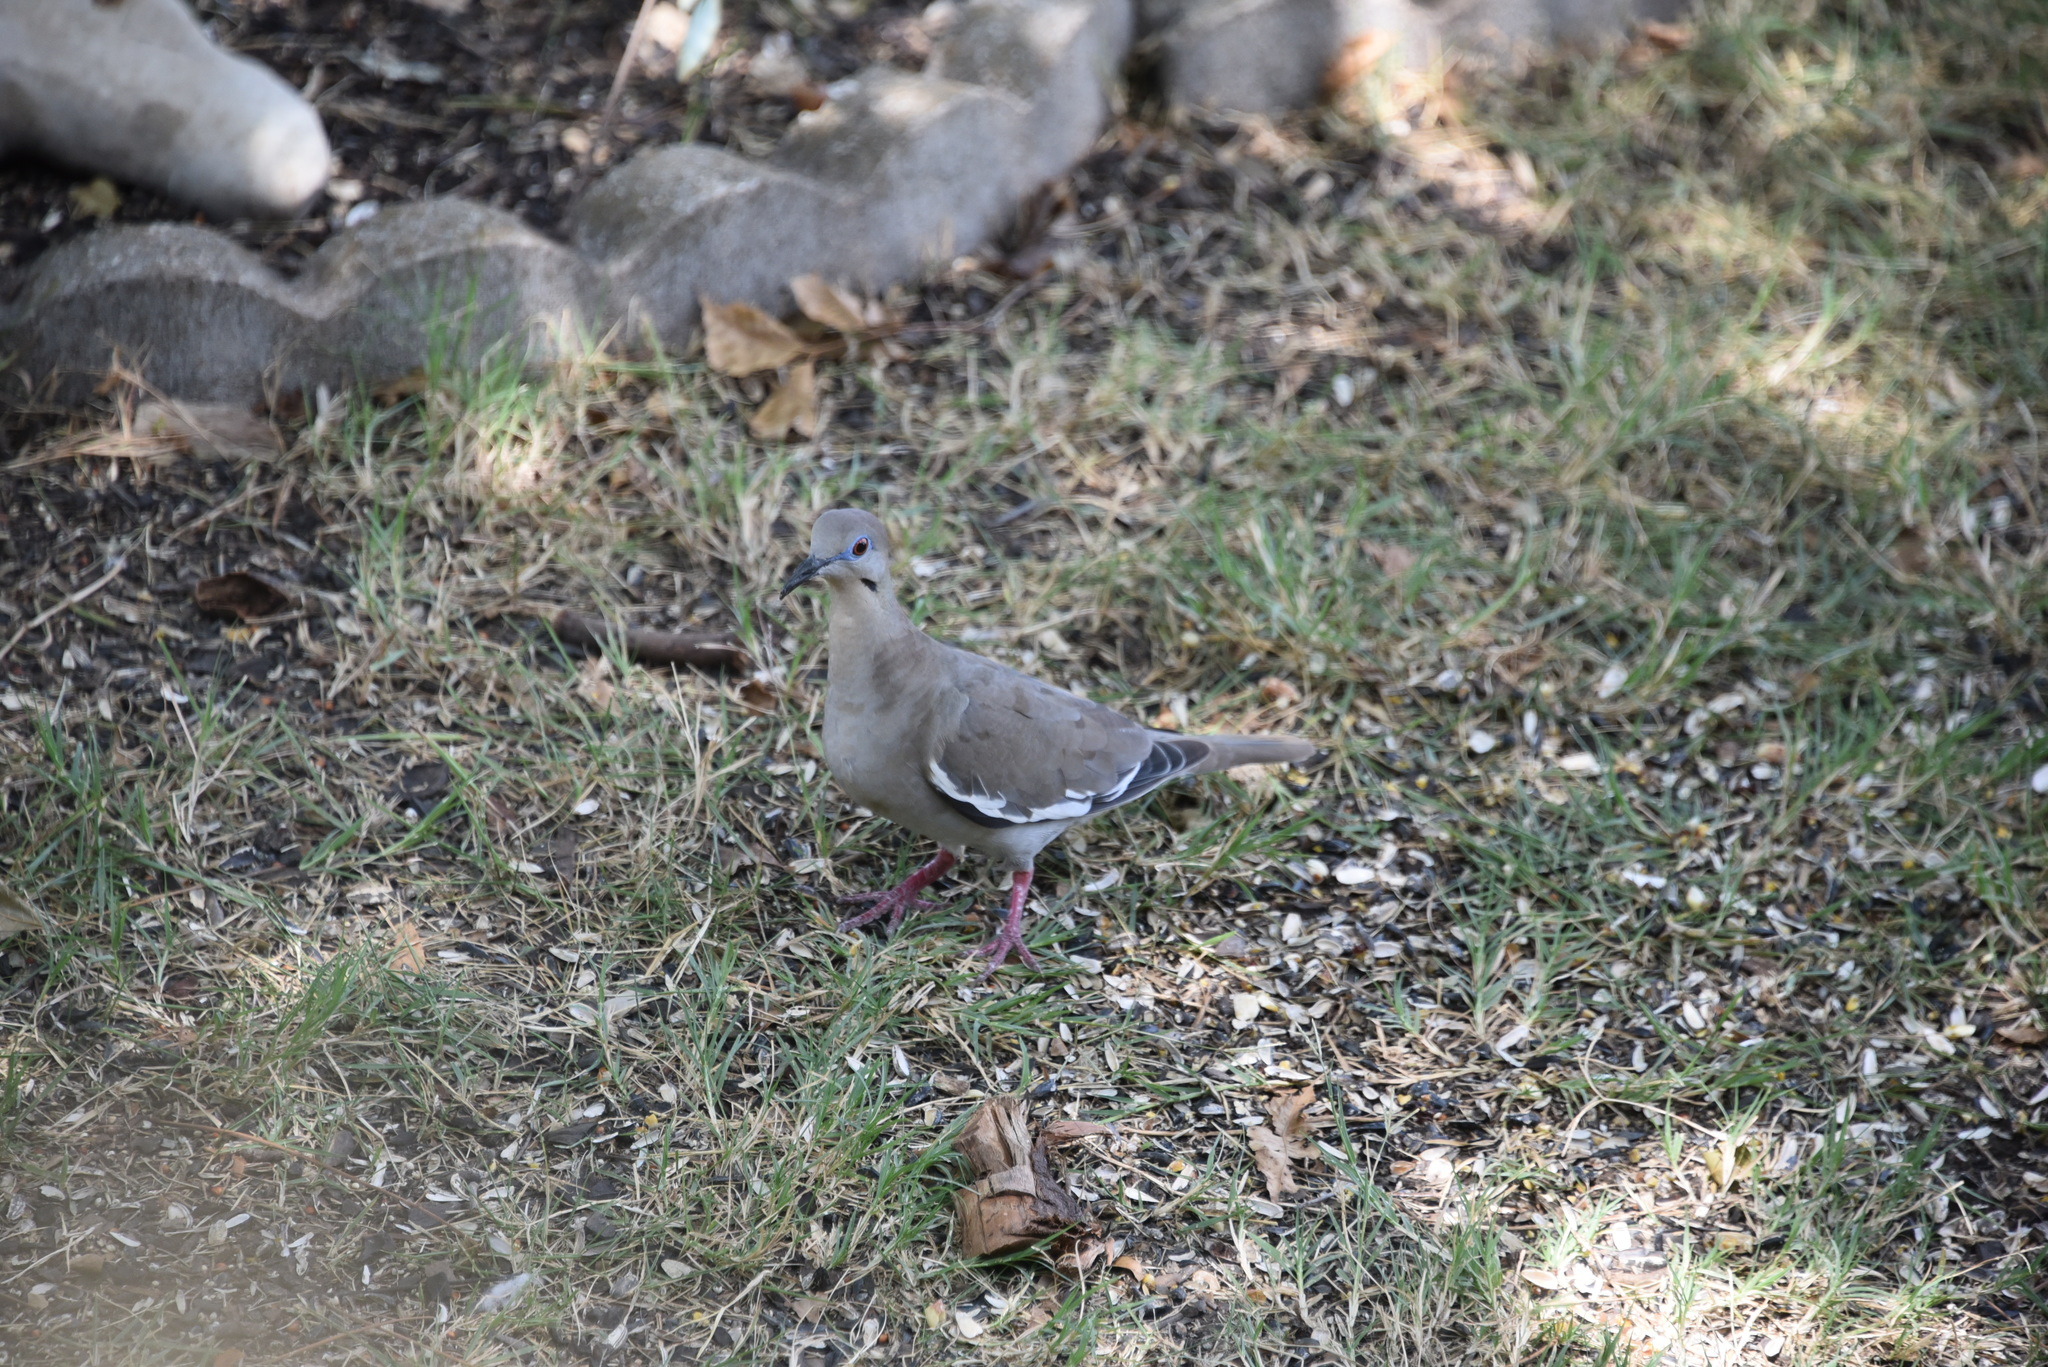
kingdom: Animalia
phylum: Chordata
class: Aves
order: Columbiformes
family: Columbidae
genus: Zenaida
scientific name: Zenaida asiatica
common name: White-winged dove
